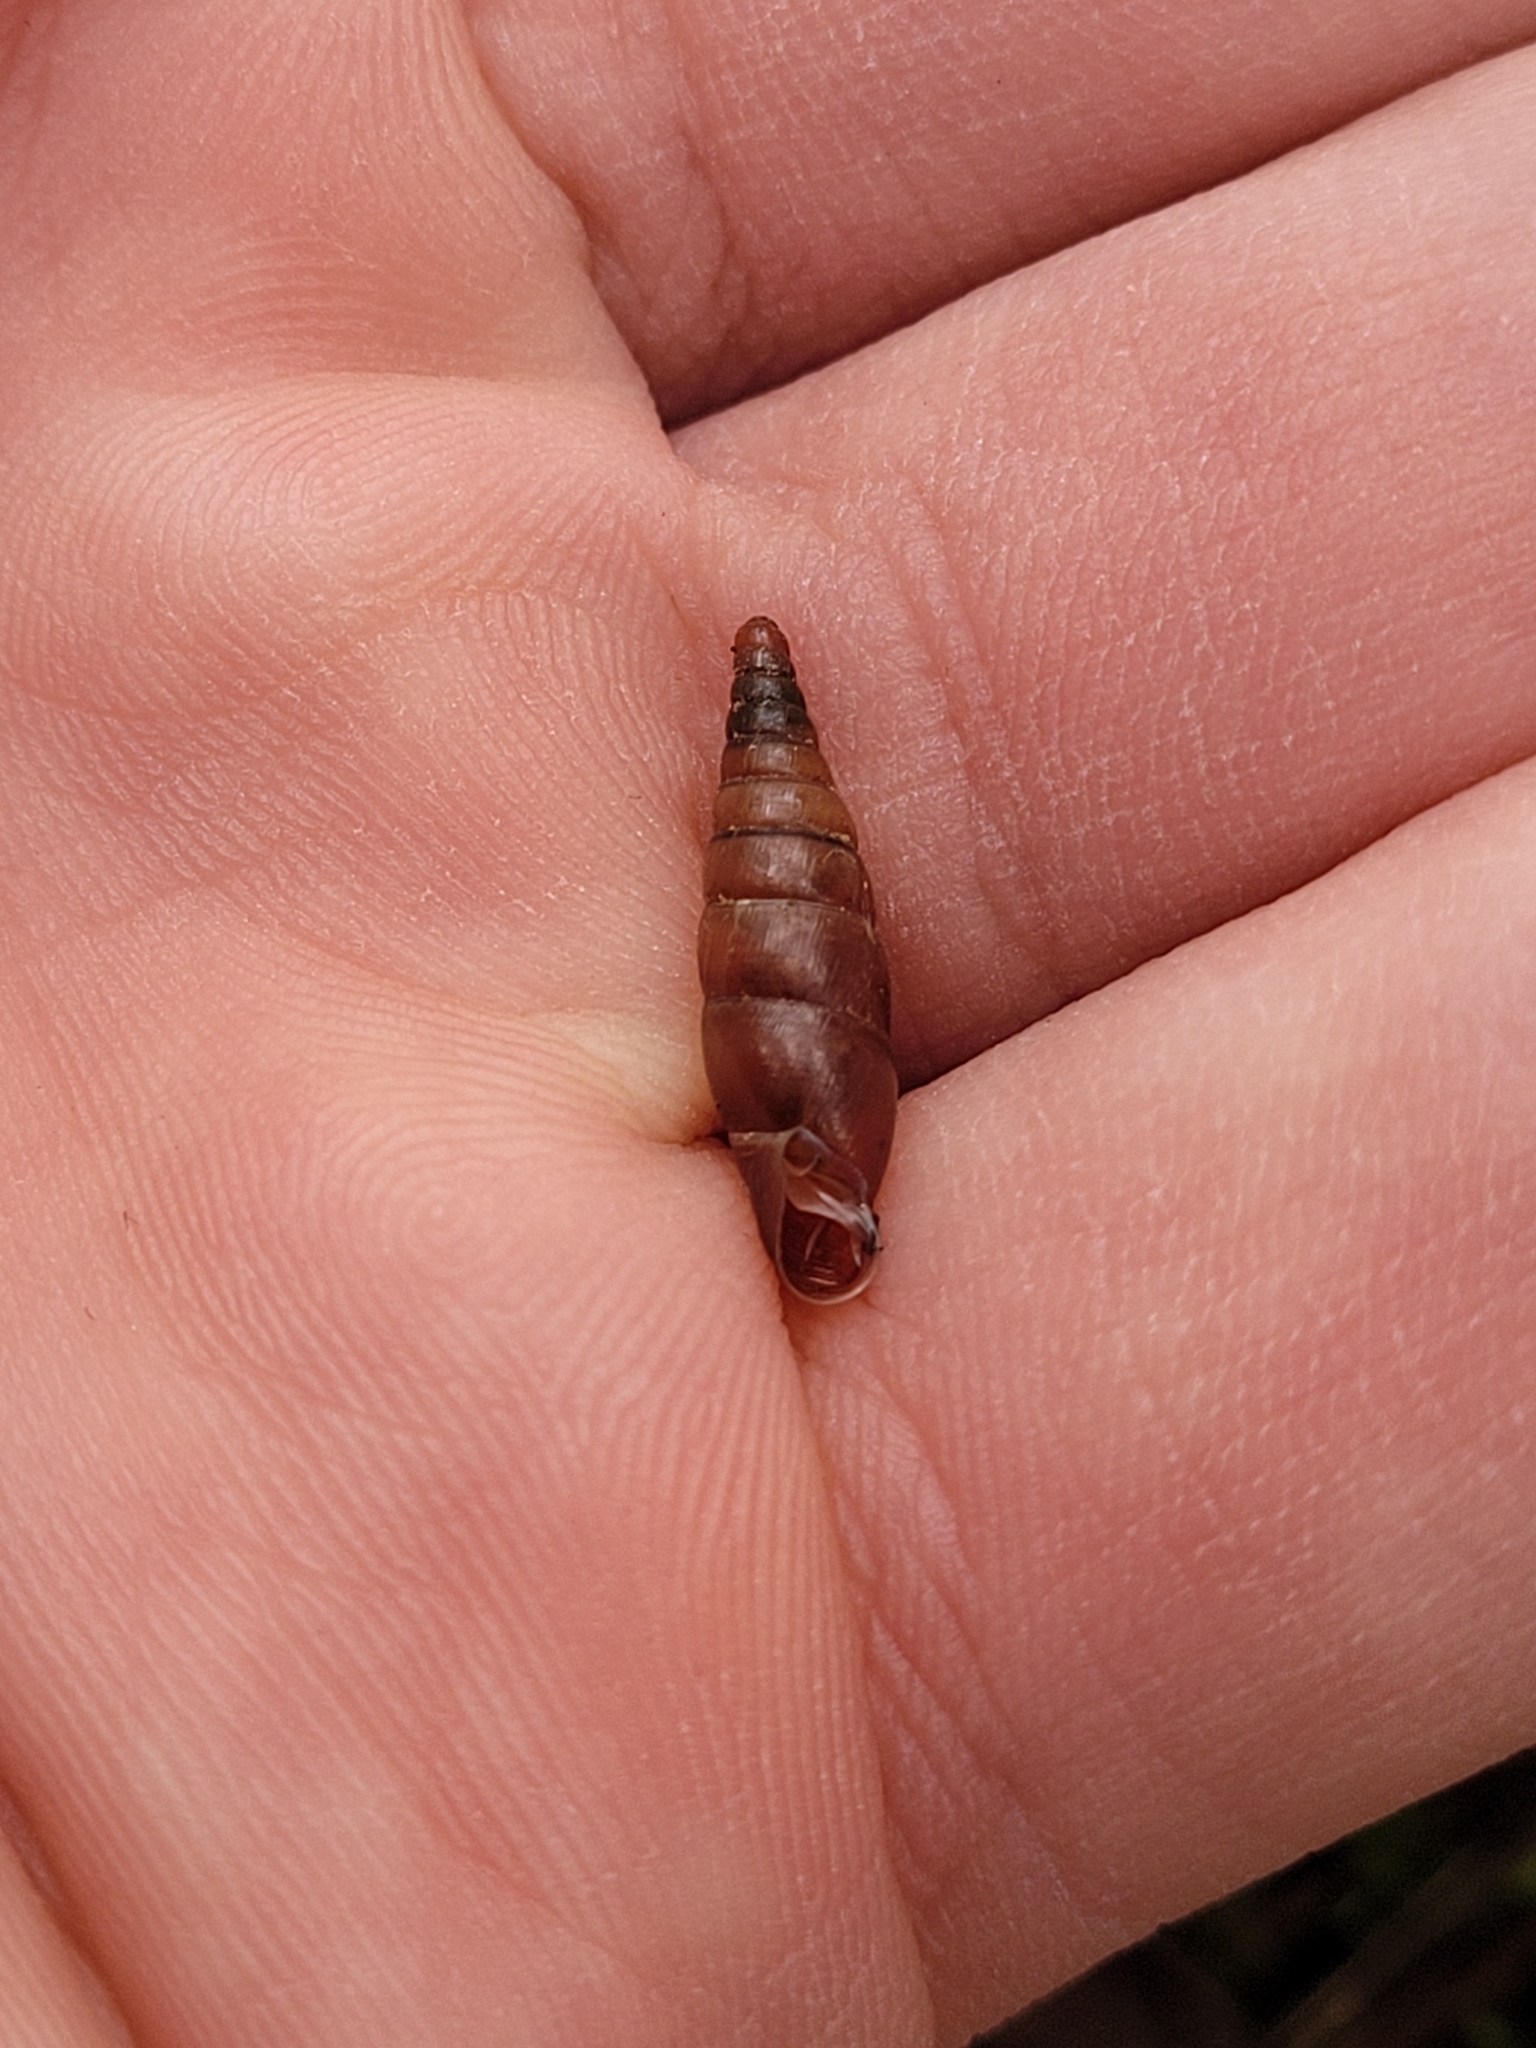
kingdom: Animalia
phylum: Mollusca
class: Gastropoda
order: Stylommatophora
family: Clausiliidae
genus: Cochlodina
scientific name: Cochlodina laminata
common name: Plaited door snail
